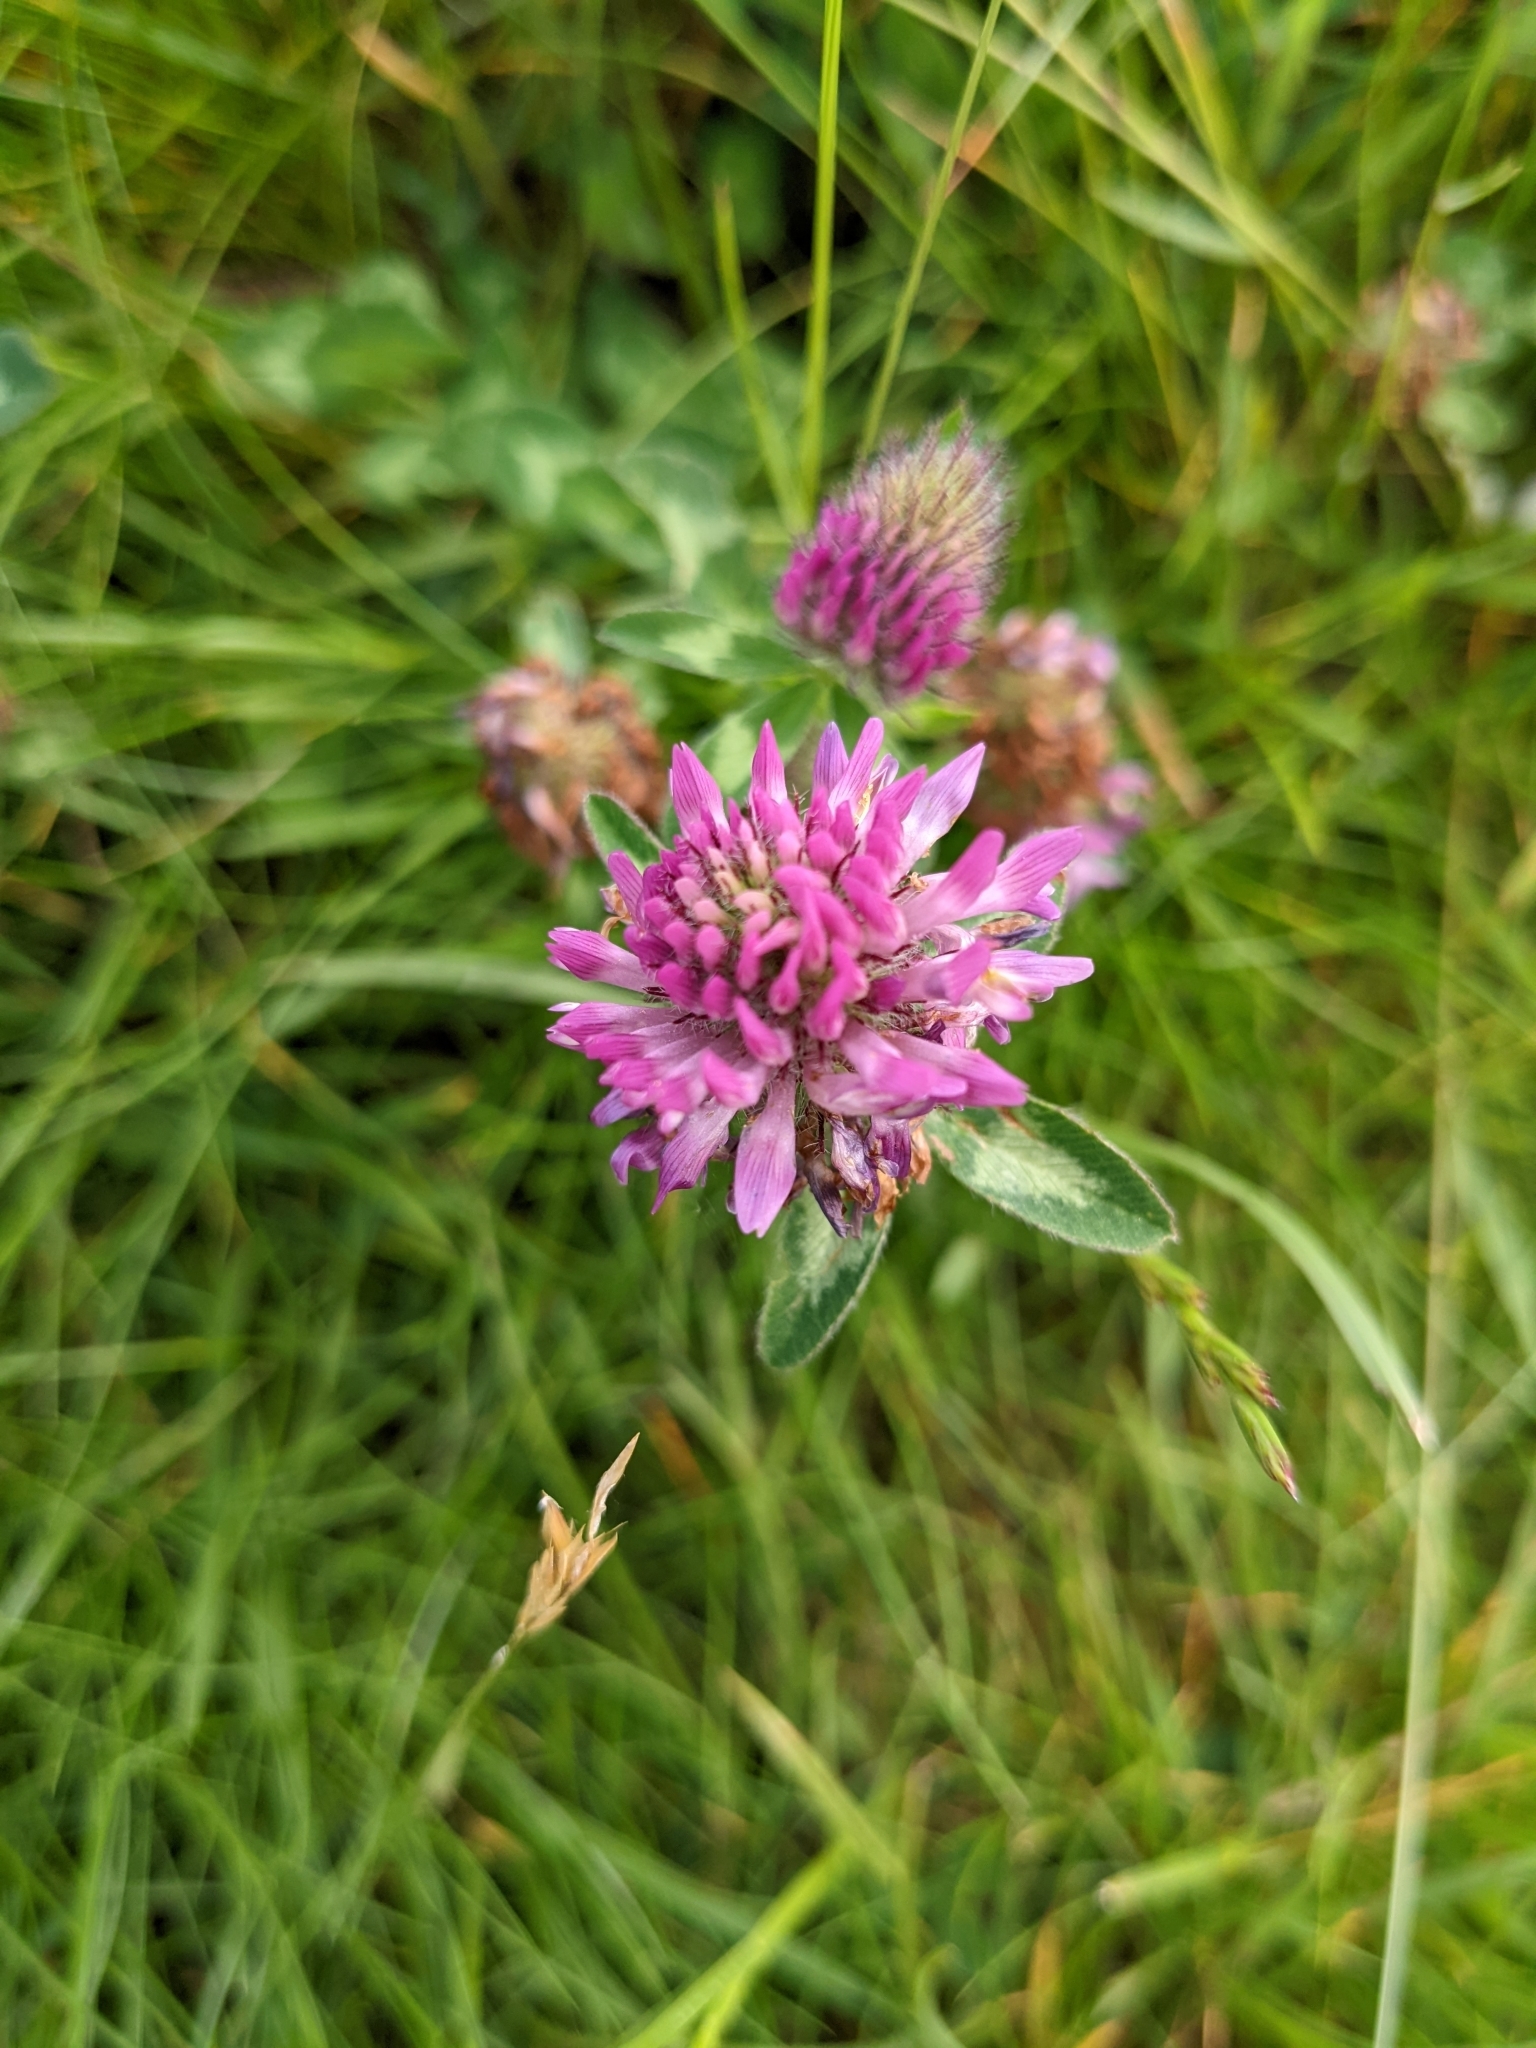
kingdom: Plantae
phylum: Tracheophyta
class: Magnoliopsida
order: Fabales
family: Fabaceae
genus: Trifolium
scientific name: Trifolium pratense
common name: Red clover
